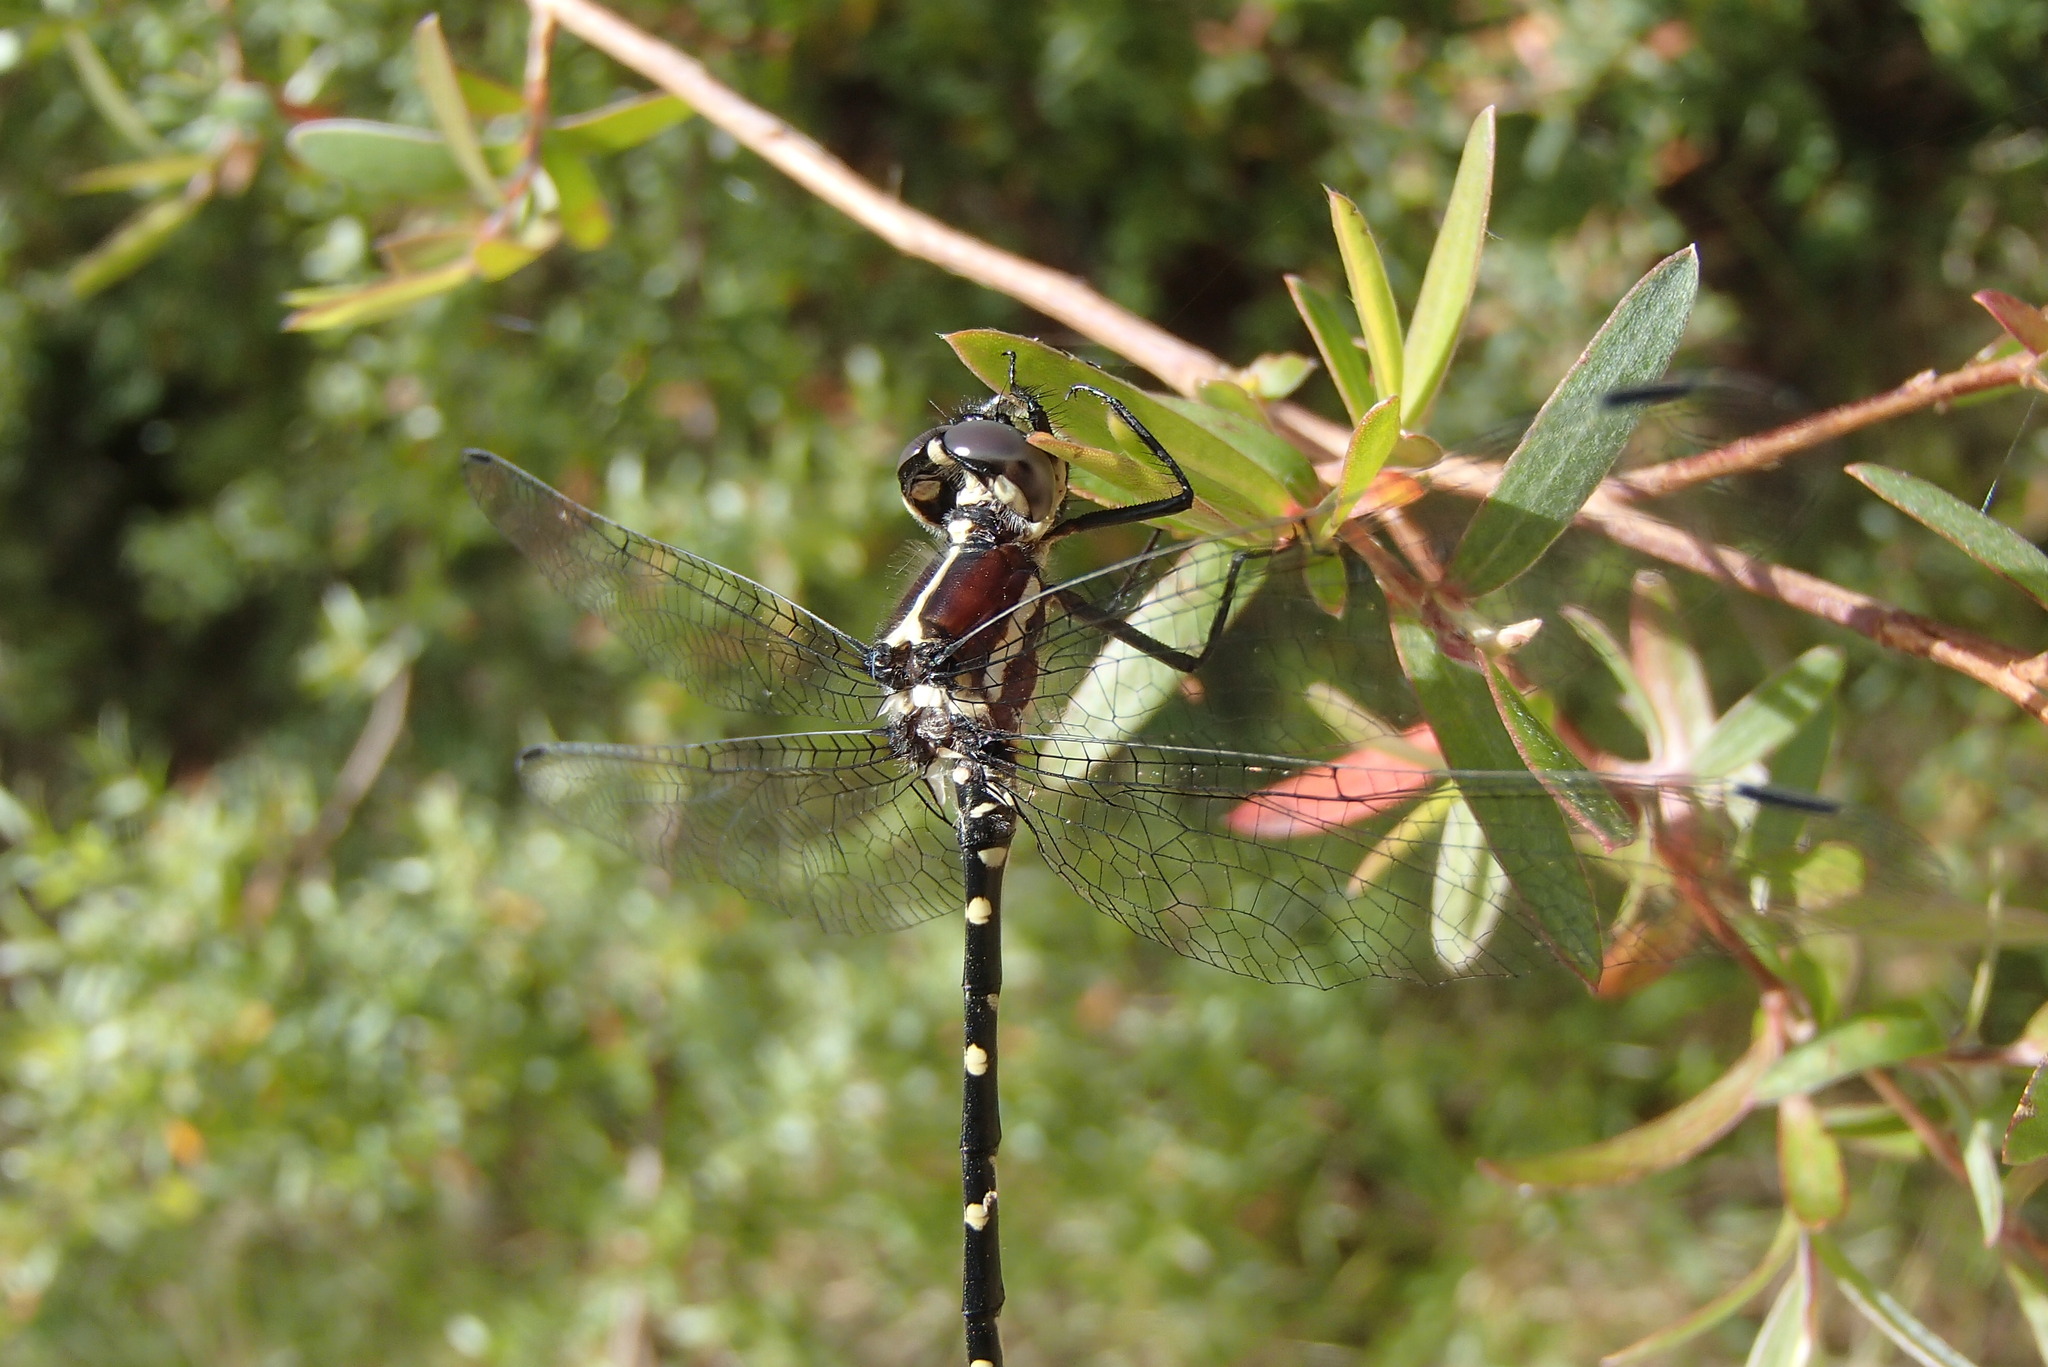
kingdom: Animalia
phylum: Arthropoda
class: Insecta
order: Odonata
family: Synthemistidae
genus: Eusynthemis
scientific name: Eusynthemis tillyardi
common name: Mountain tigertail
